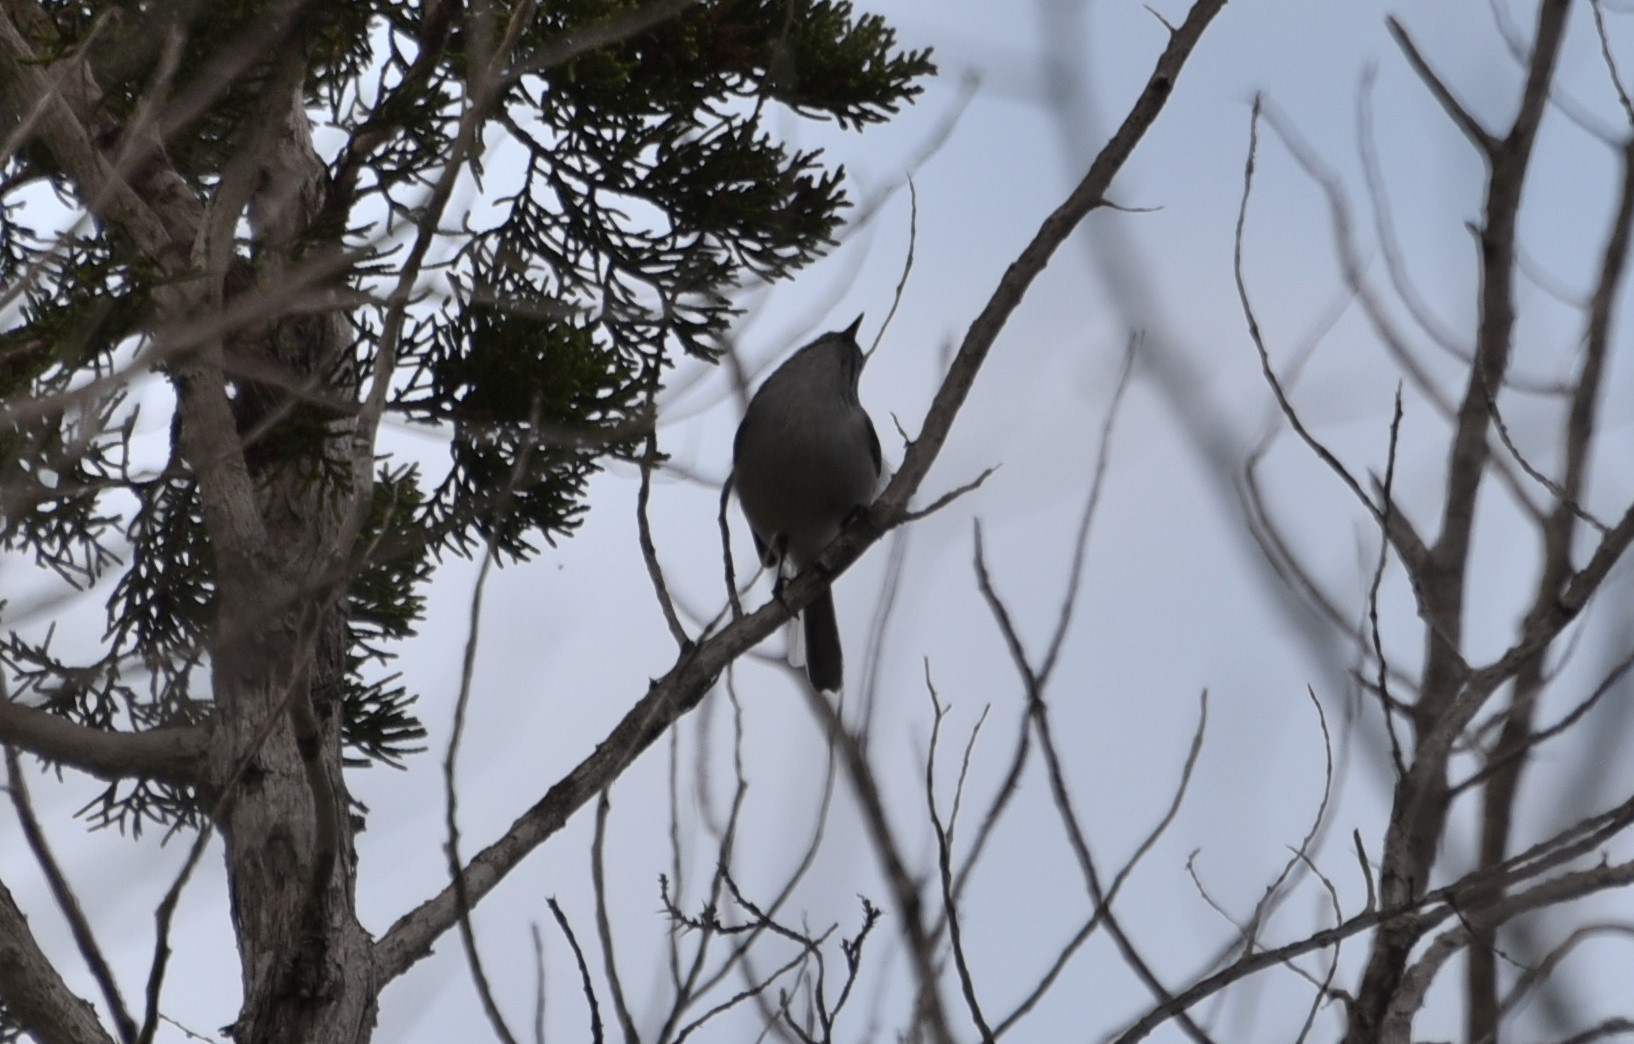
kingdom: Animalia
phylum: Chordata
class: Aves
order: Passeriformes
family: Polioptilidae
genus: Polioptila
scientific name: Polioptila caerulea
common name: Blue-gray gnatcatcher
